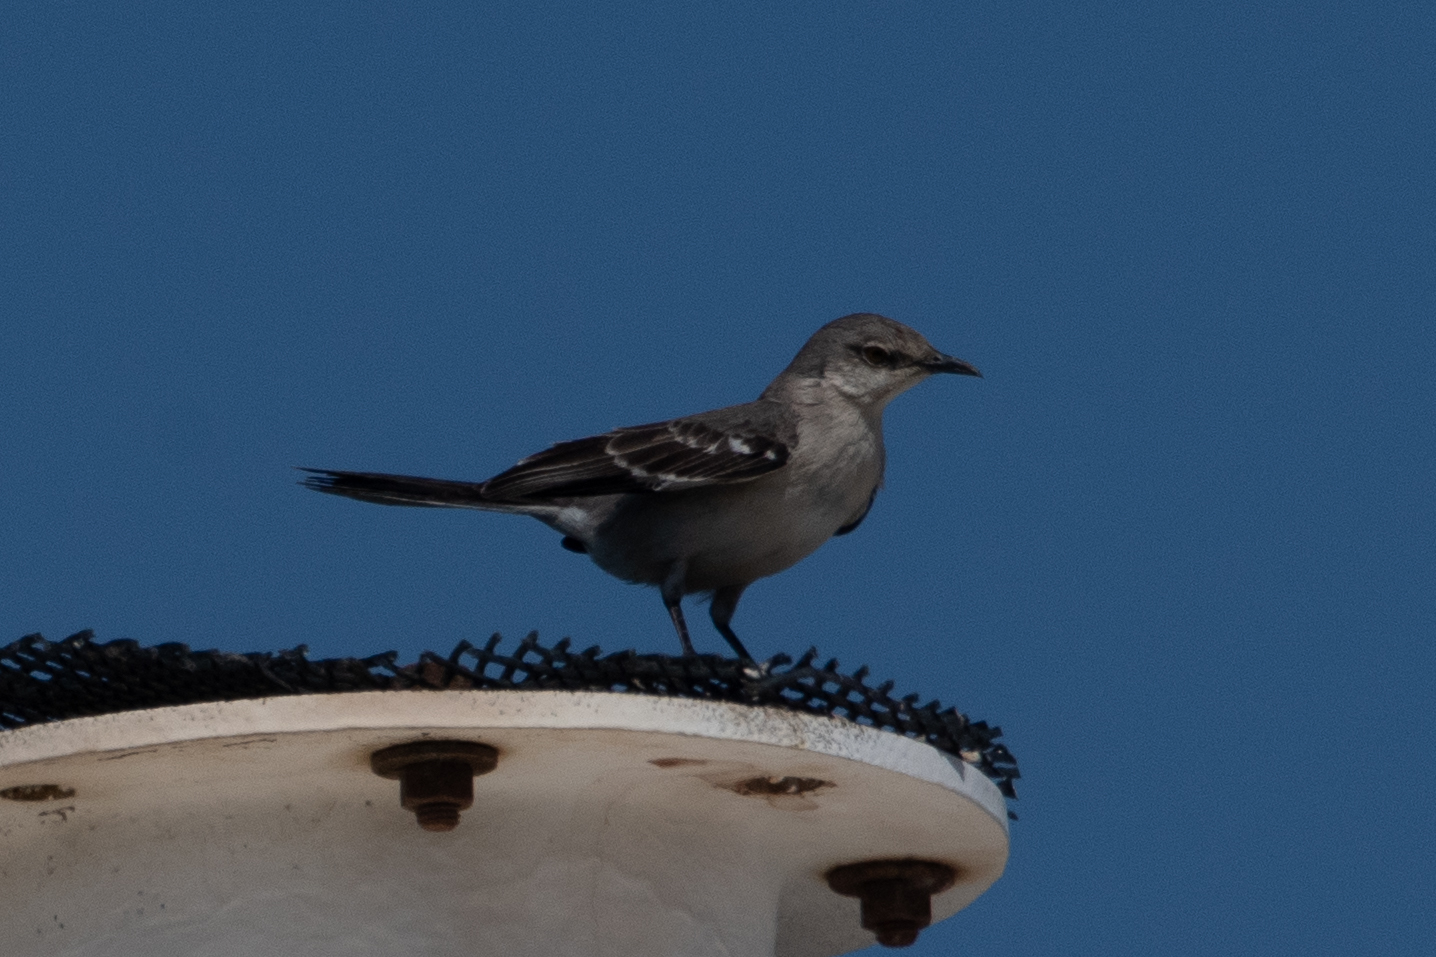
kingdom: Animalia
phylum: Chordata
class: Aves
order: Passeriformes
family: Mimidae
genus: Mimus
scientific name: Mimus polyglottos
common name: Northern mockingbird
